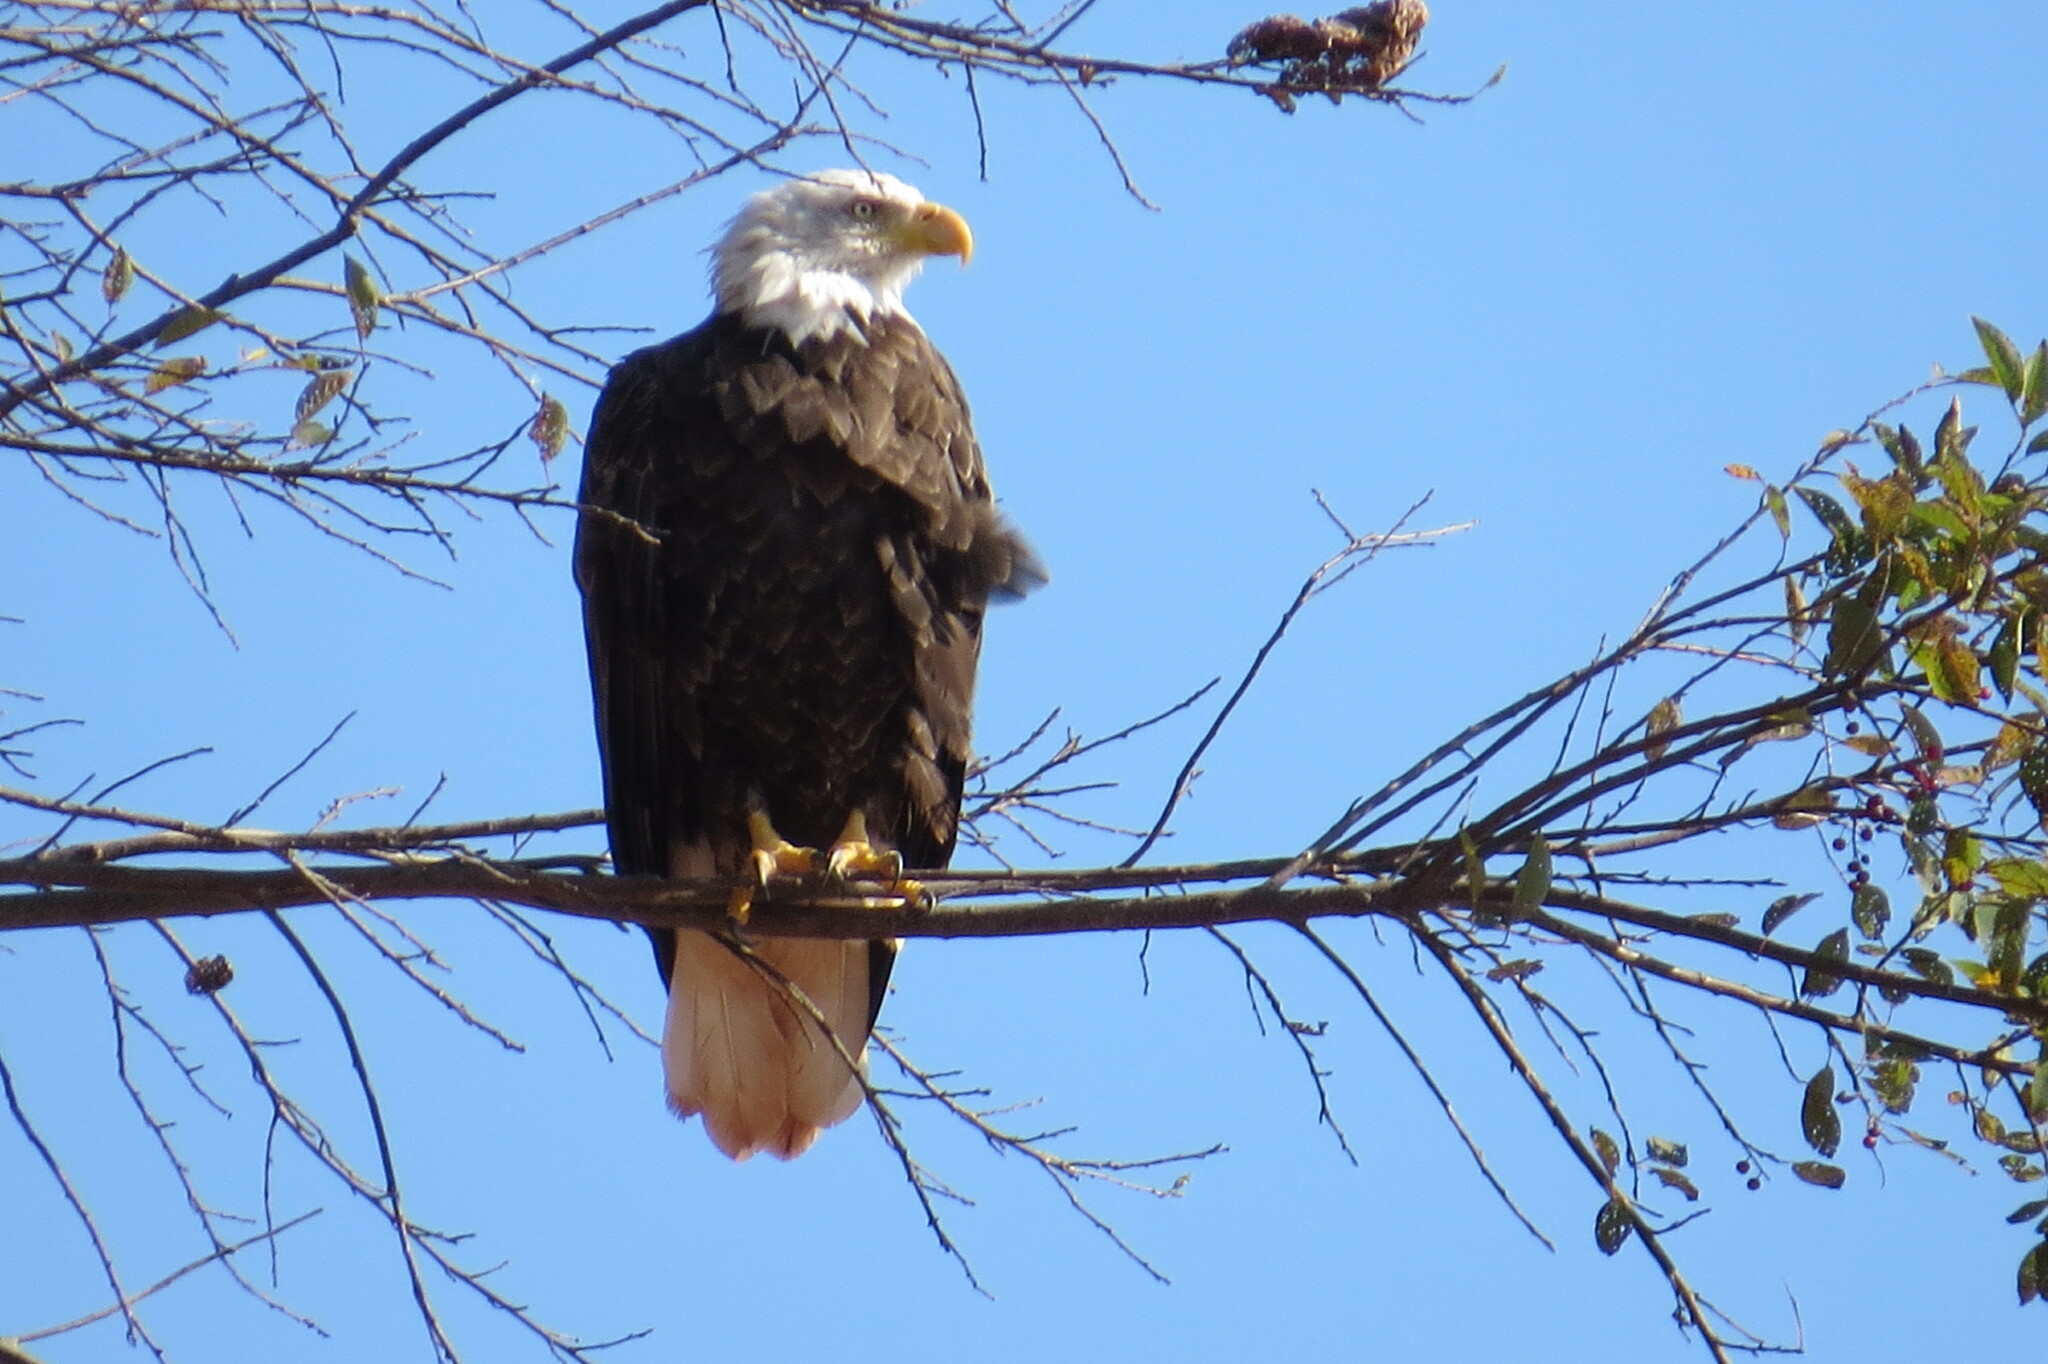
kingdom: Animalia
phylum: Chordata
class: Aves
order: Accipitriformes
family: Accipitridae
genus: Haliaeetus
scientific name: Haliaeetus leucocephalus
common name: Bald eagle
